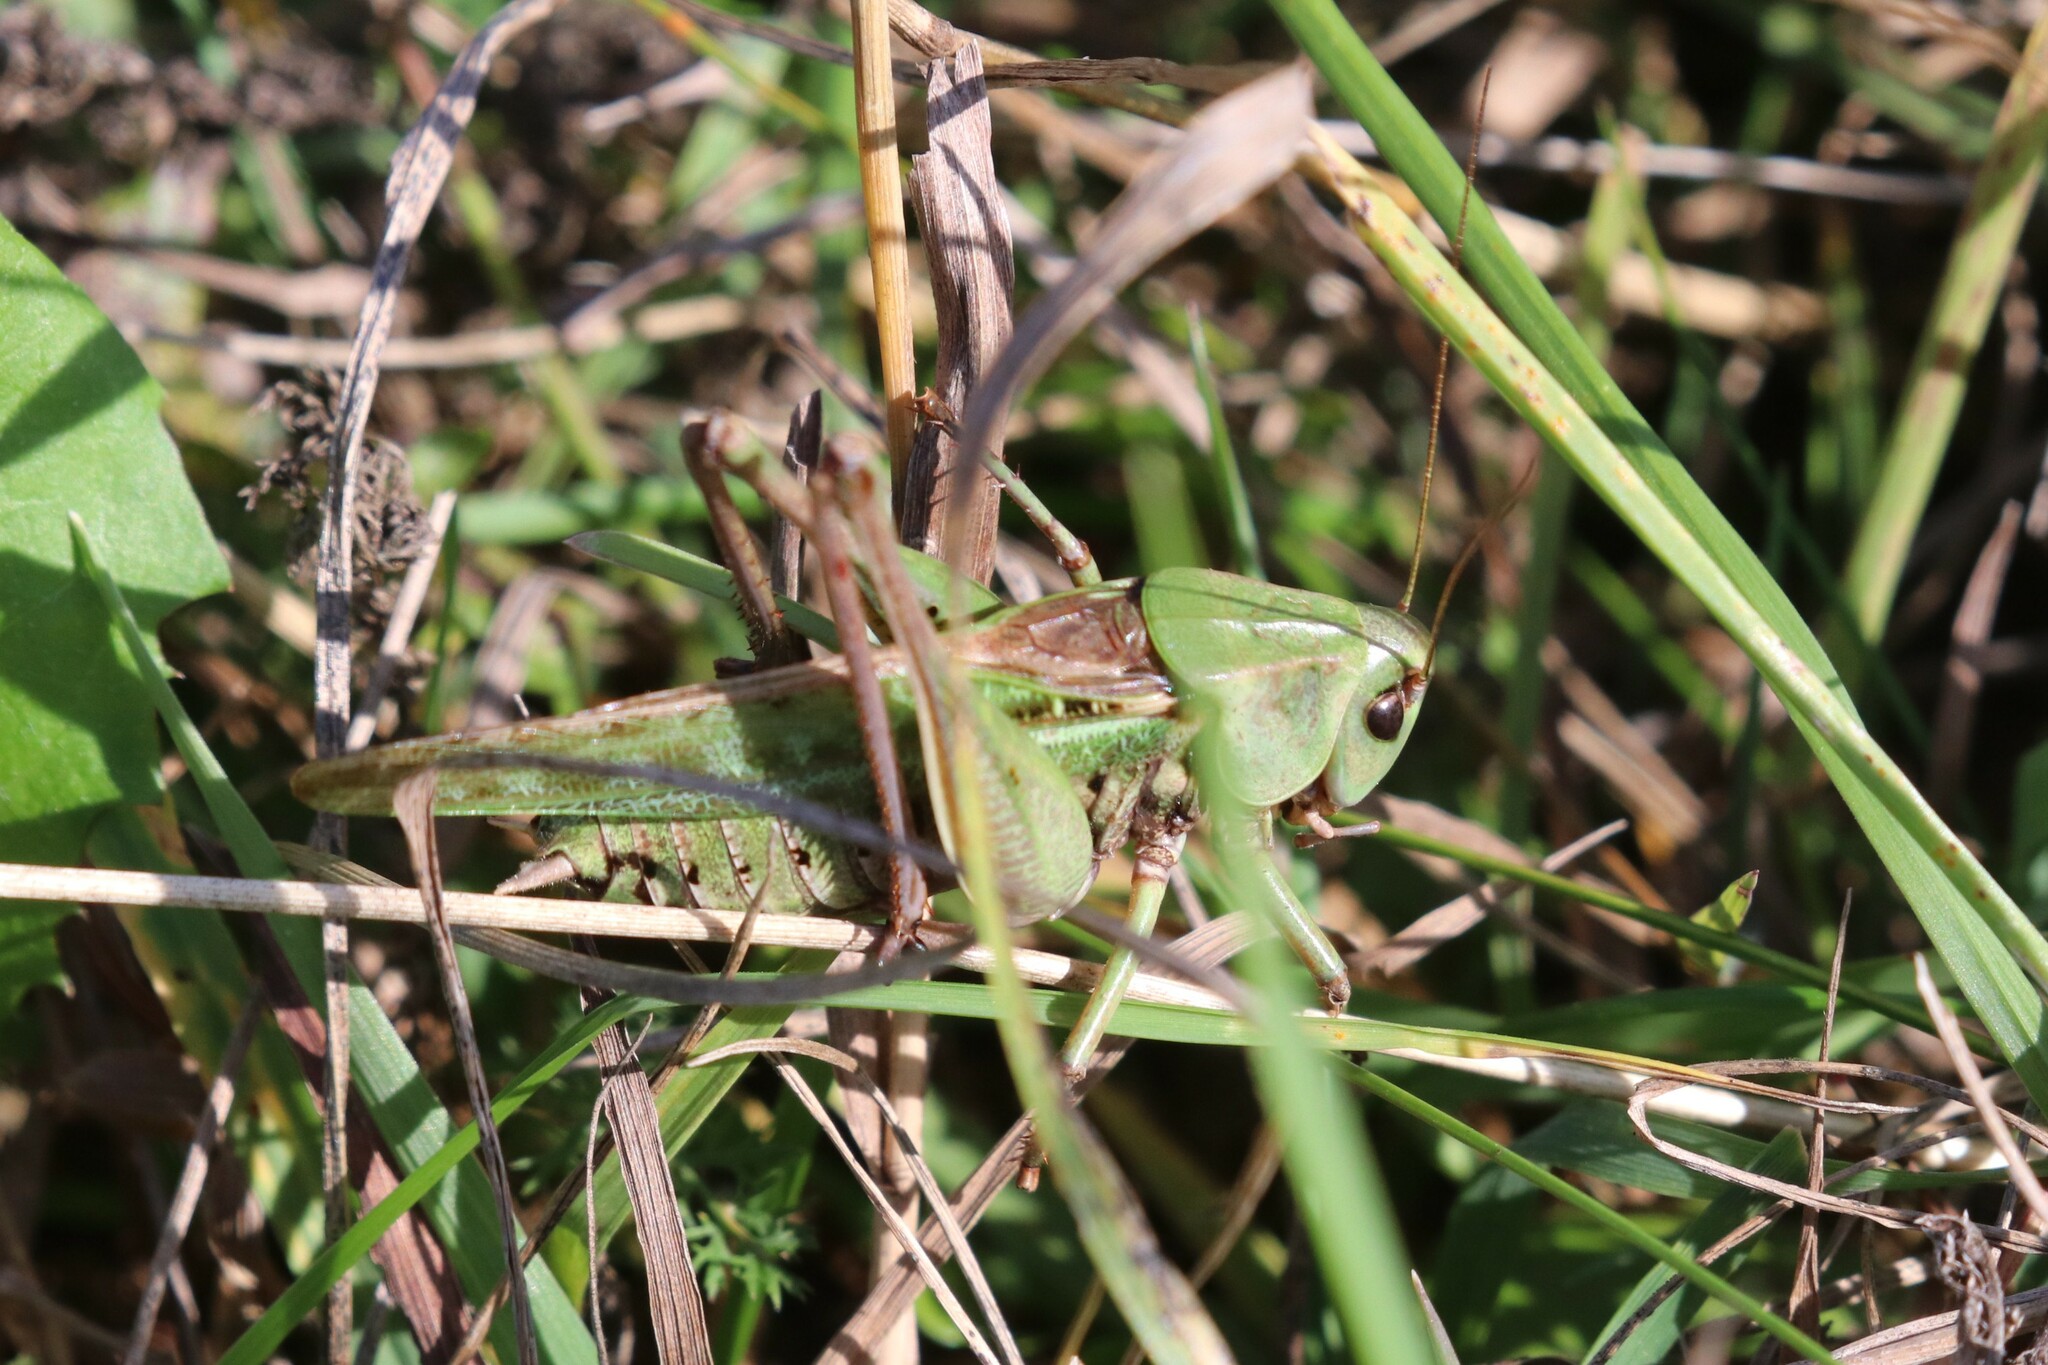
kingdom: Animalia
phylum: Arthropoda
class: Insecta
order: Orthoptera
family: Tettigoniidae
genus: Decticus
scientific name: Decticus verrucivorus
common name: Wart-biter
